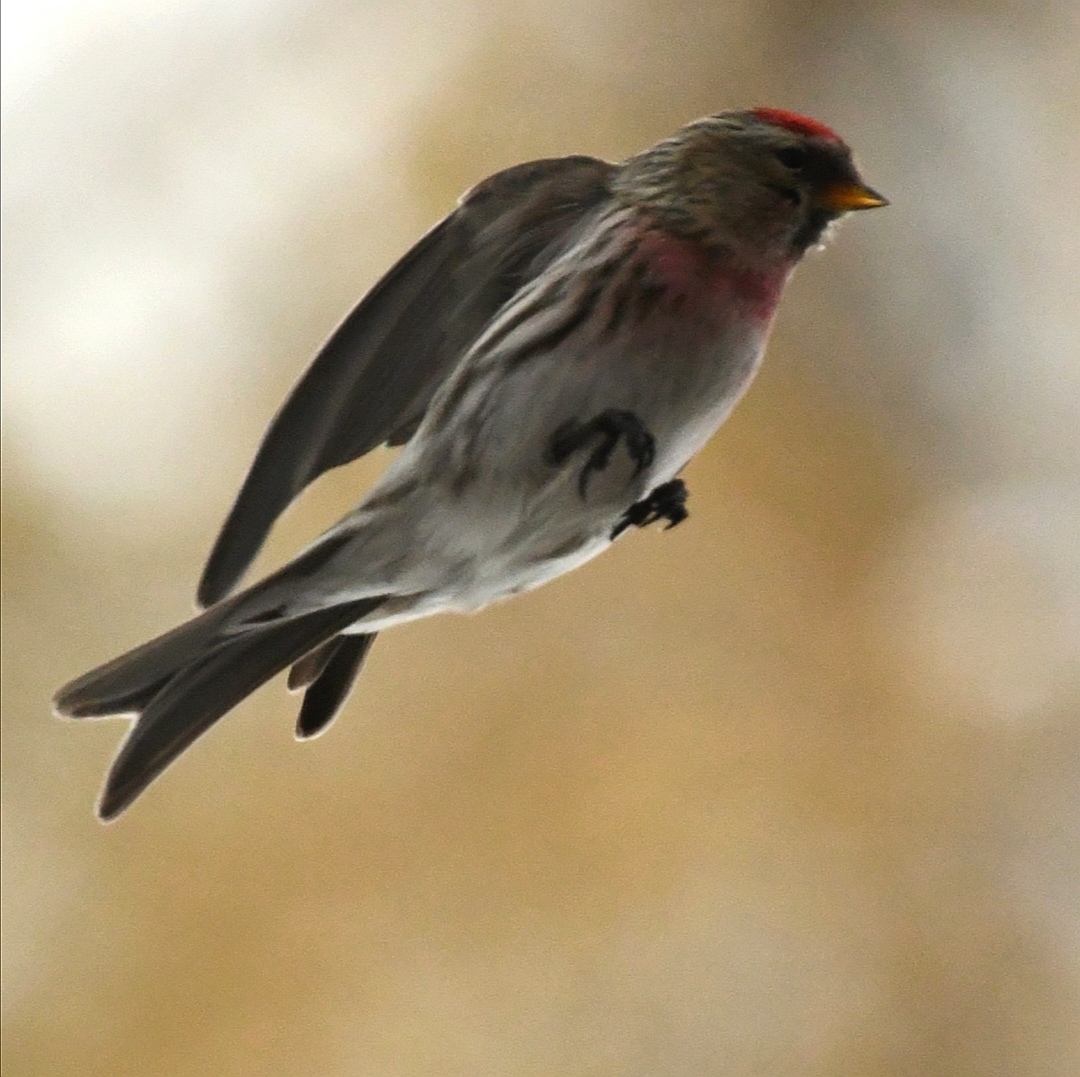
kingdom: Animalia
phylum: Chordata
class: Aves
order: Passeriformes
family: Fringillidae
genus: Acanthis
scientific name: Acanthis flammea
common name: Common redpoll
